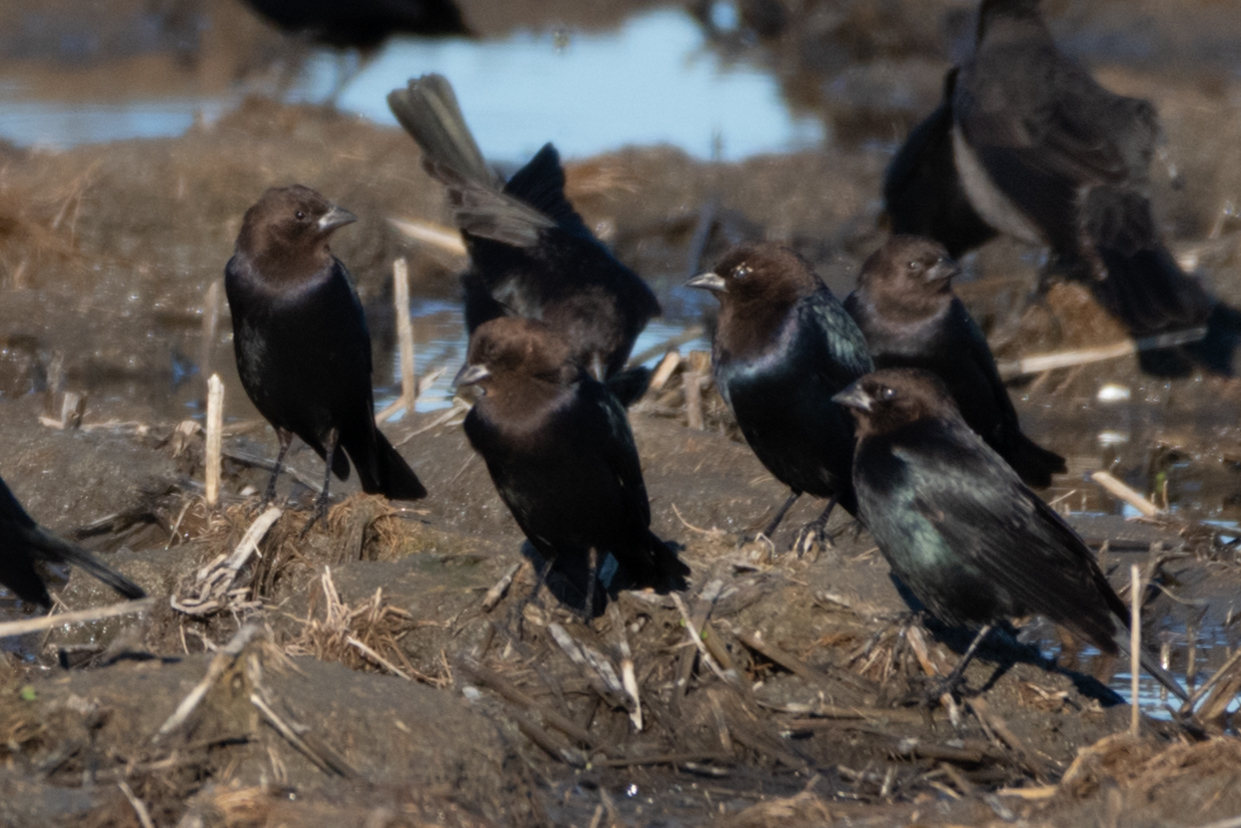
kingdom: Animalia
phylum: Chordata
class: Aves
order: Passeriformes
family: Icteridae
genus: Molothrus
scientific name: Molothrus ater
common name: Brown-headed cowbird
